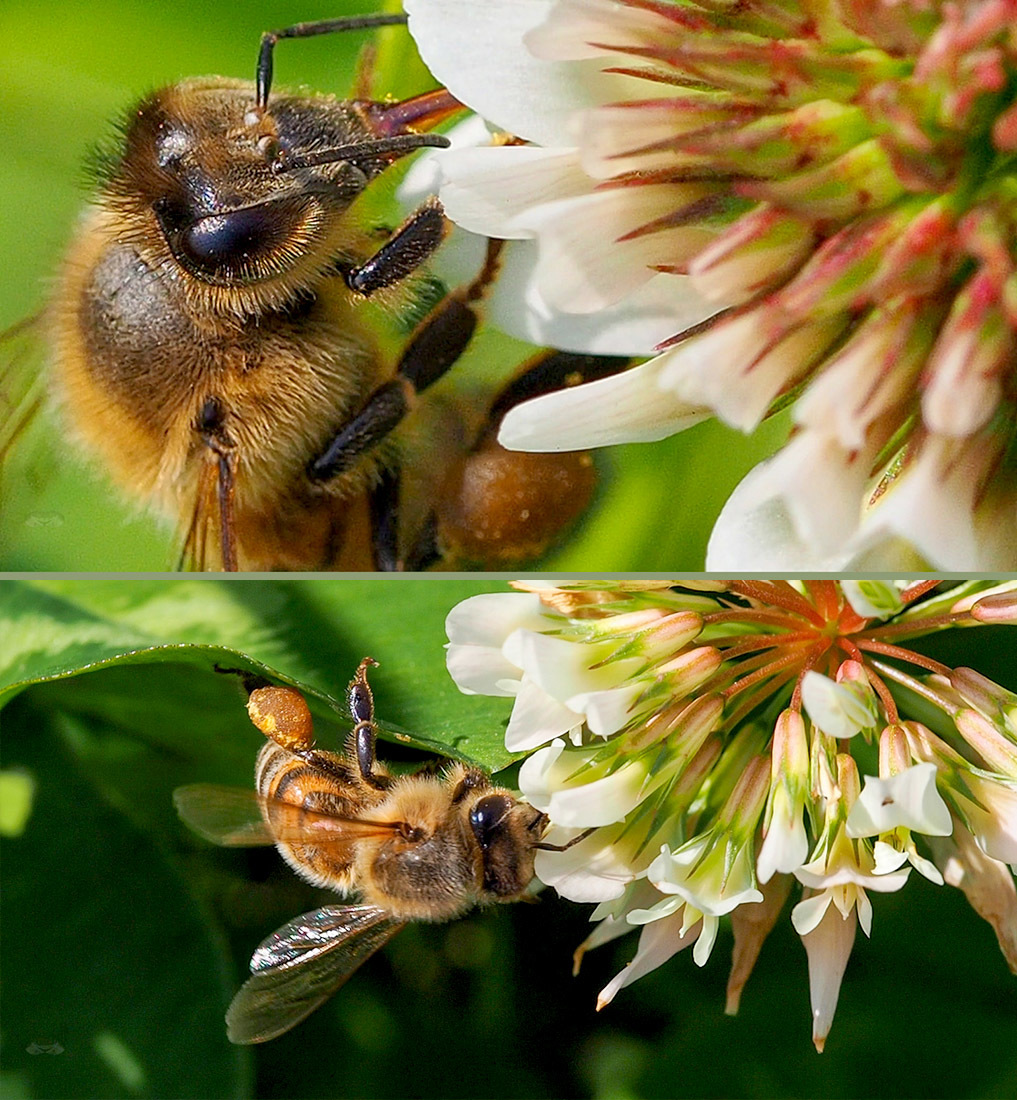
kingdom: Animalia
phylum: Arthropoda
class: Insecta
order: Hymenoptera
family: Apidae
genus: Apis
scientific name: Apis mellifera
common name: Honey bee
